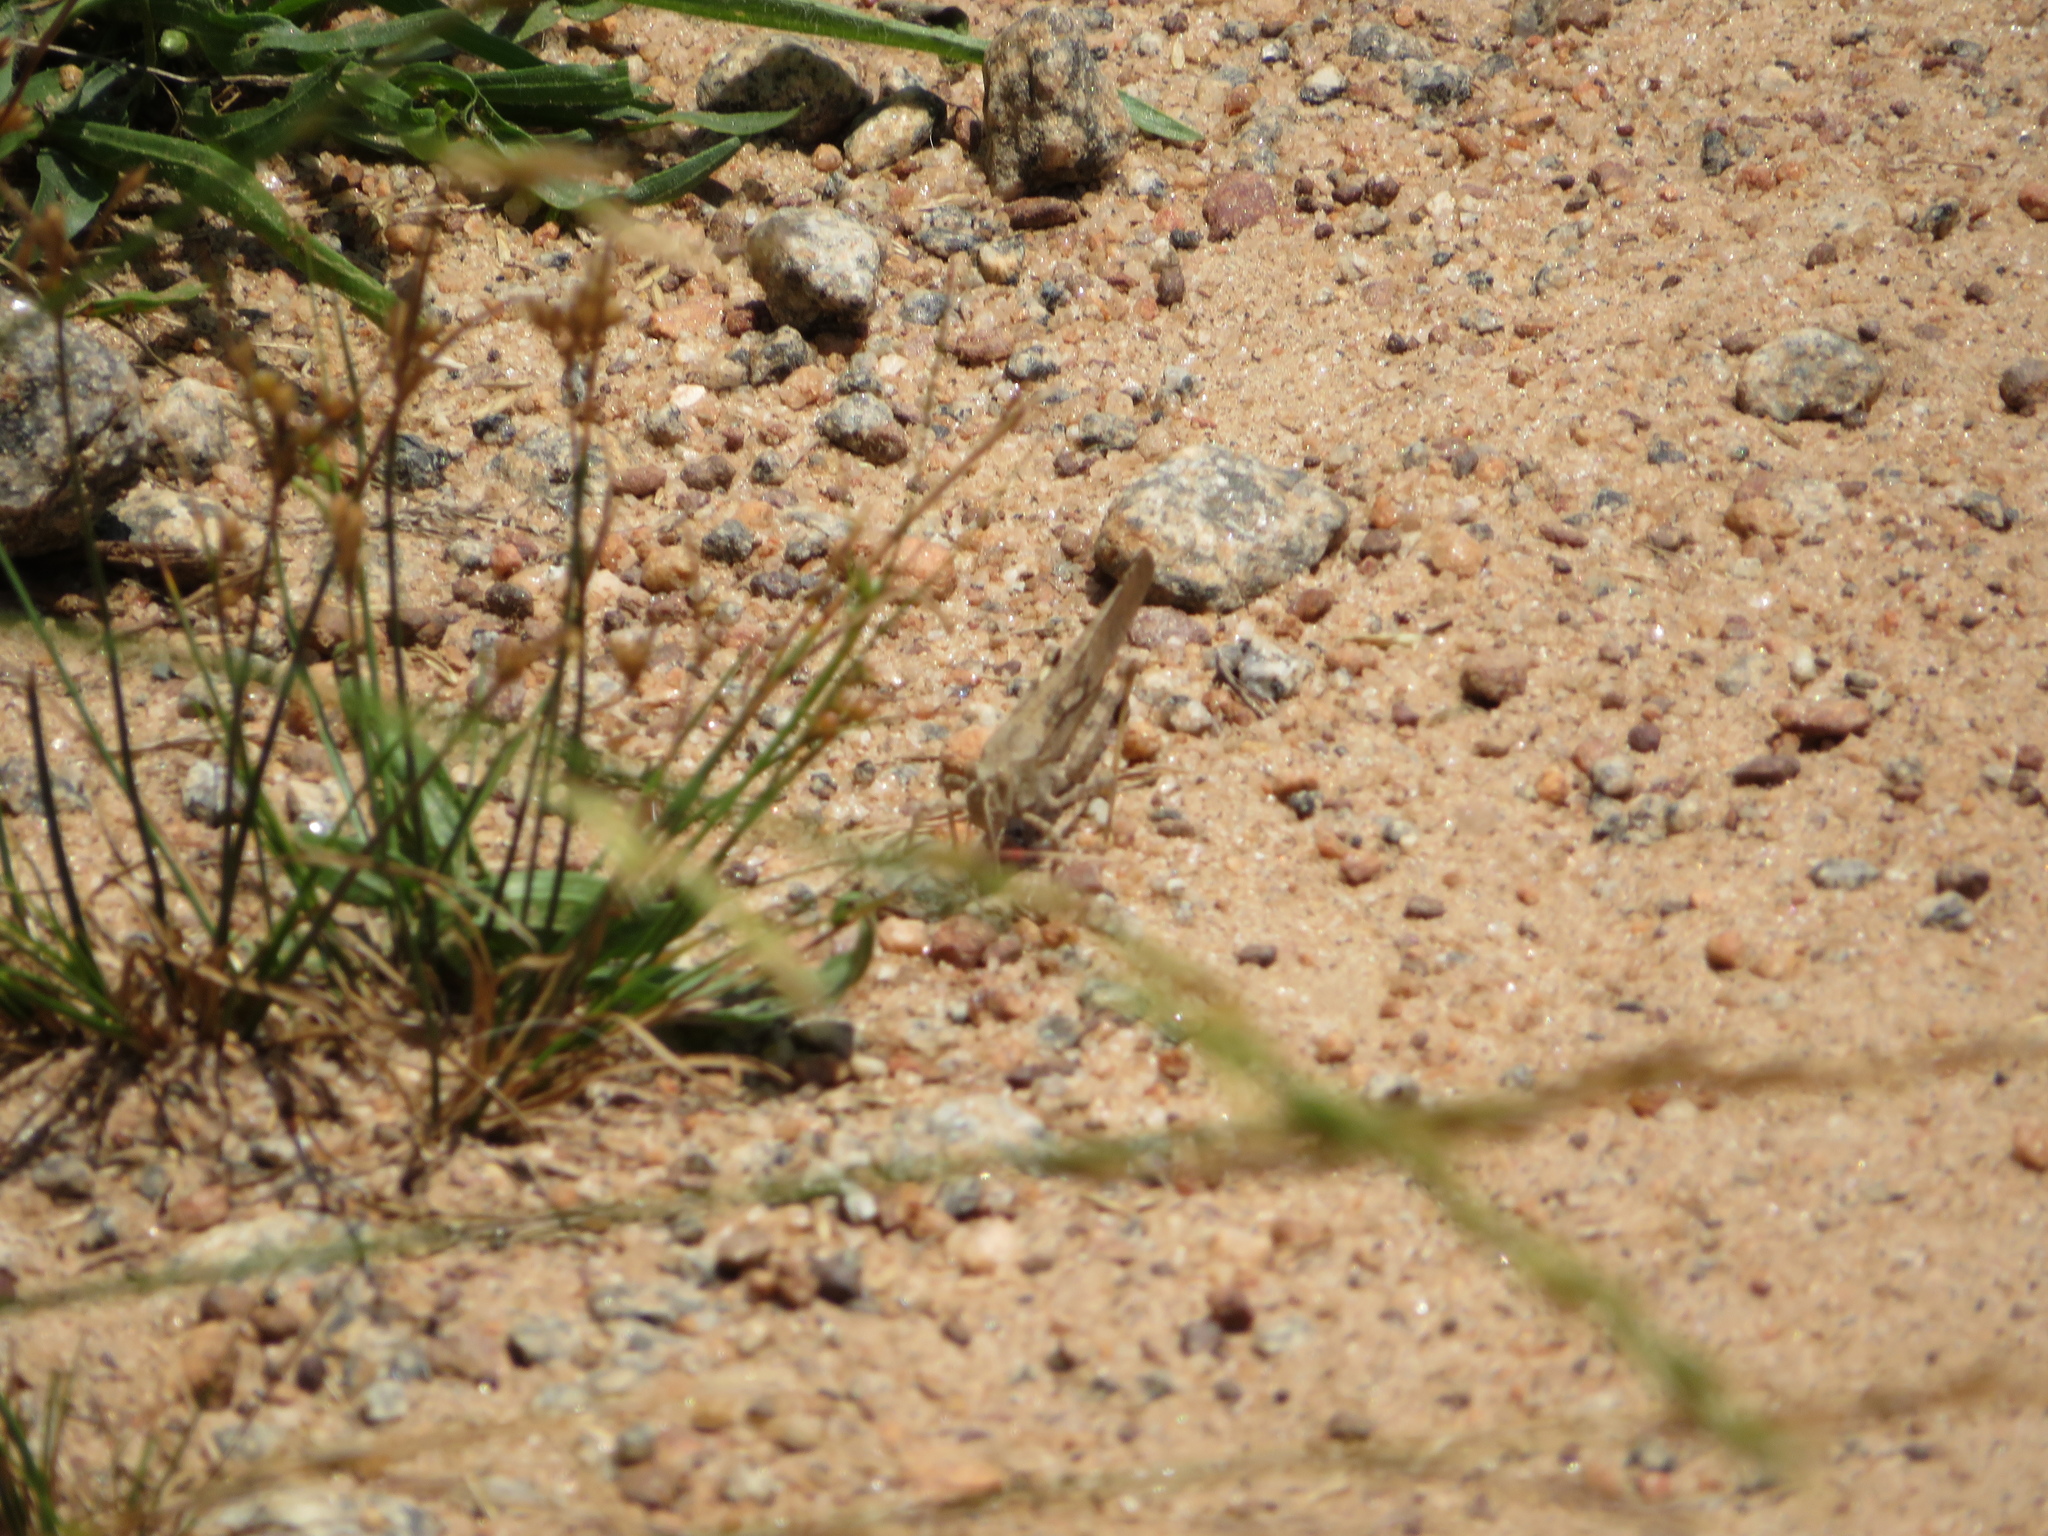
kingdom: Animalia
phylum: Arthropoda
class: Insecta
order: Orthoptera
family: Acrididae
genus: Dissosteira
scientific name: Dissosteira carolina
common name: Carolina grasshopper
